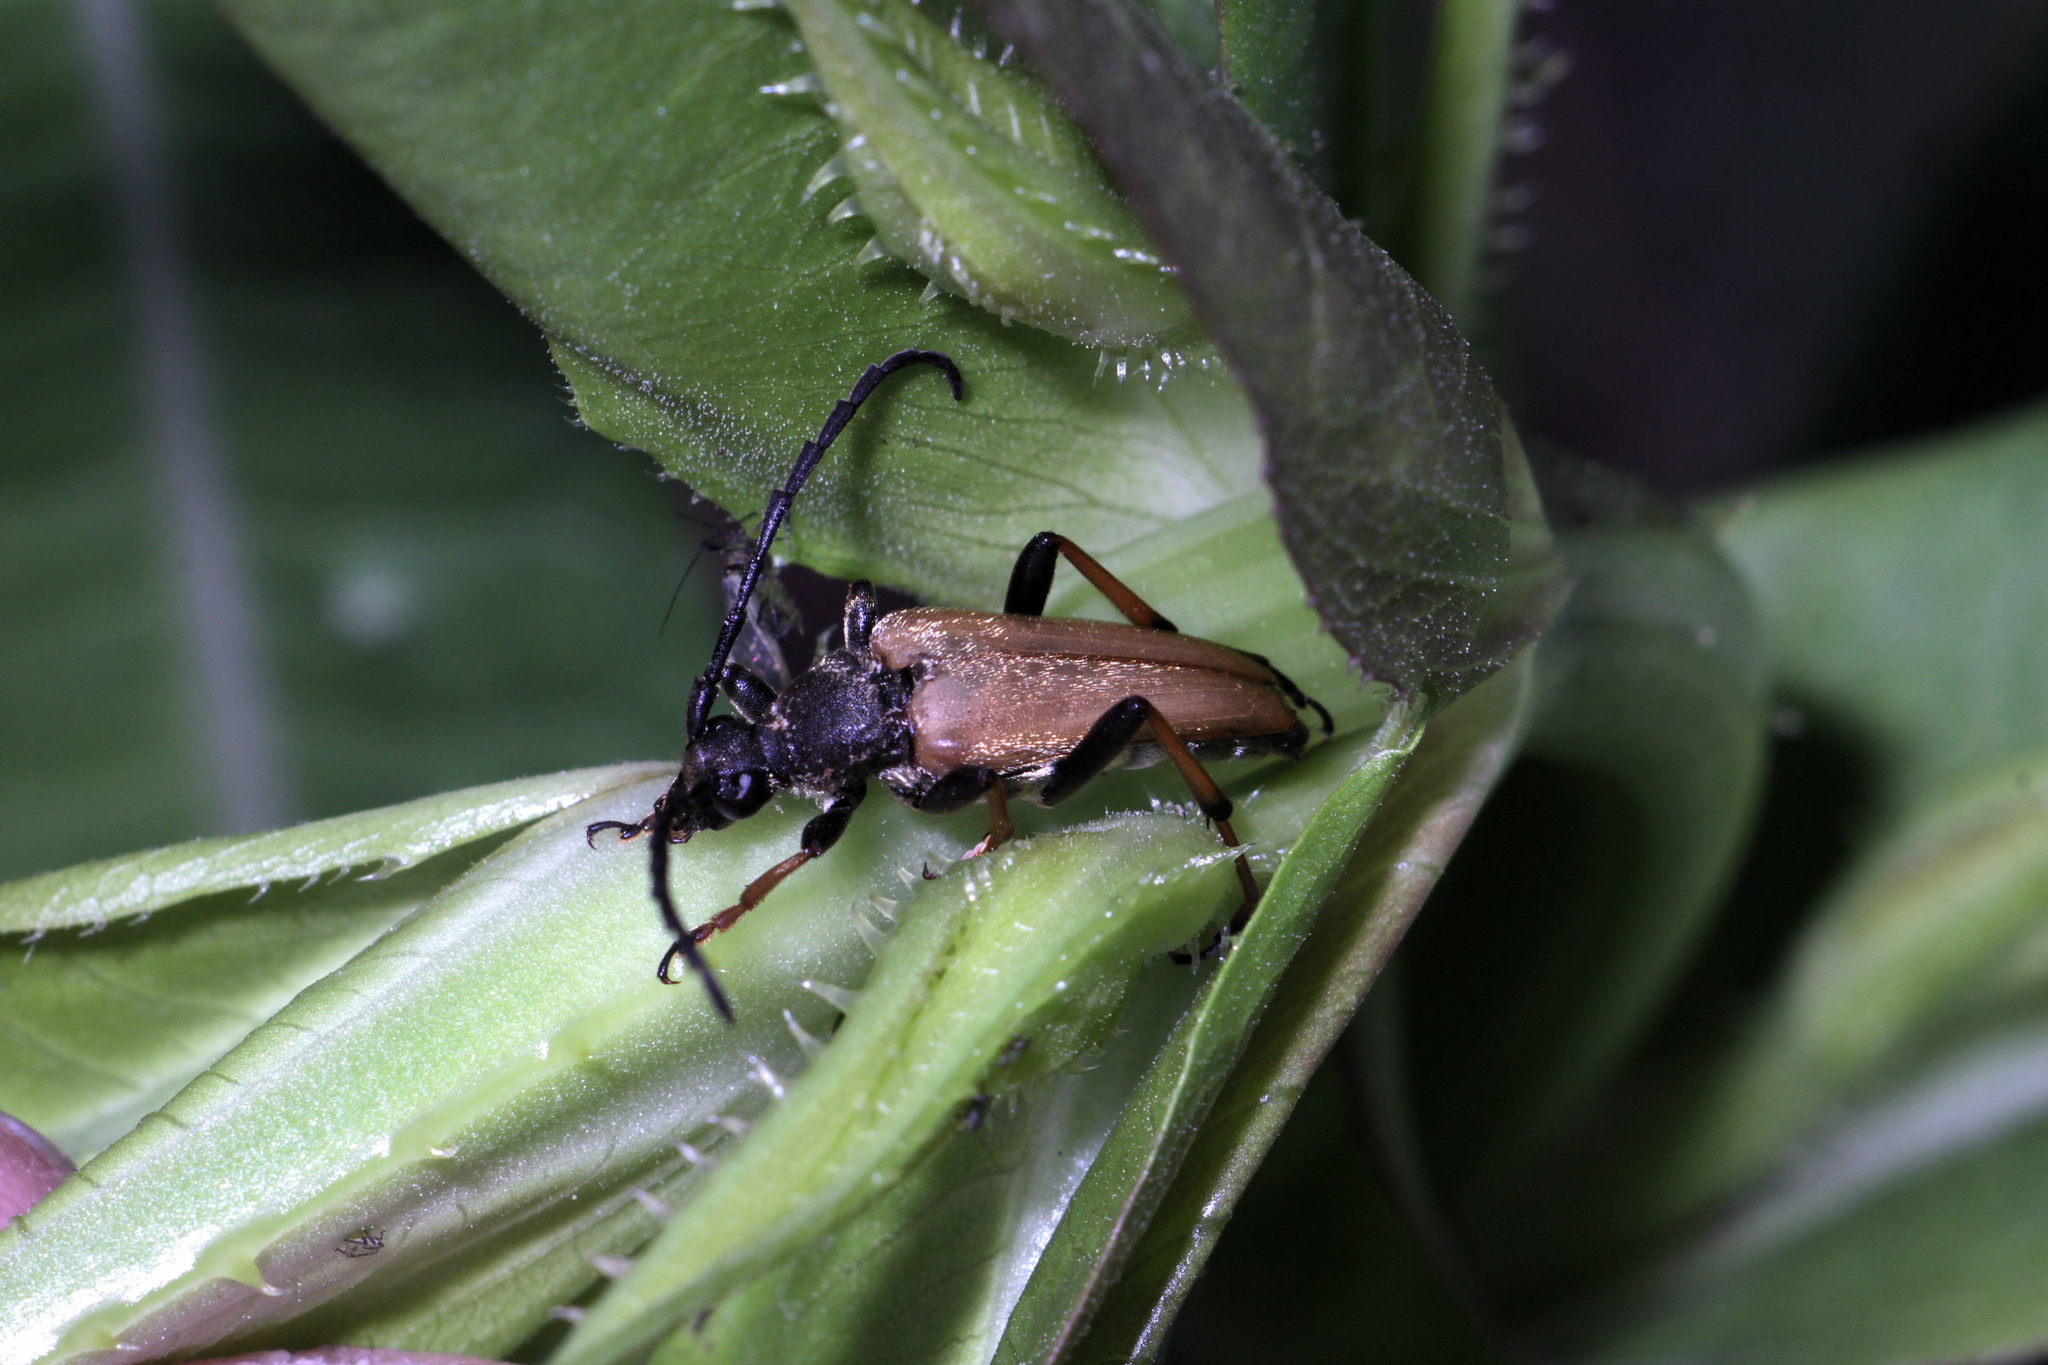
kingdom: Animalia
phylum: Arthropoda
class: Insecta
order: Coleoptera
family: Cerambycidae
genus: Stictoleptura
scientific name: Stictoleptura rubra
